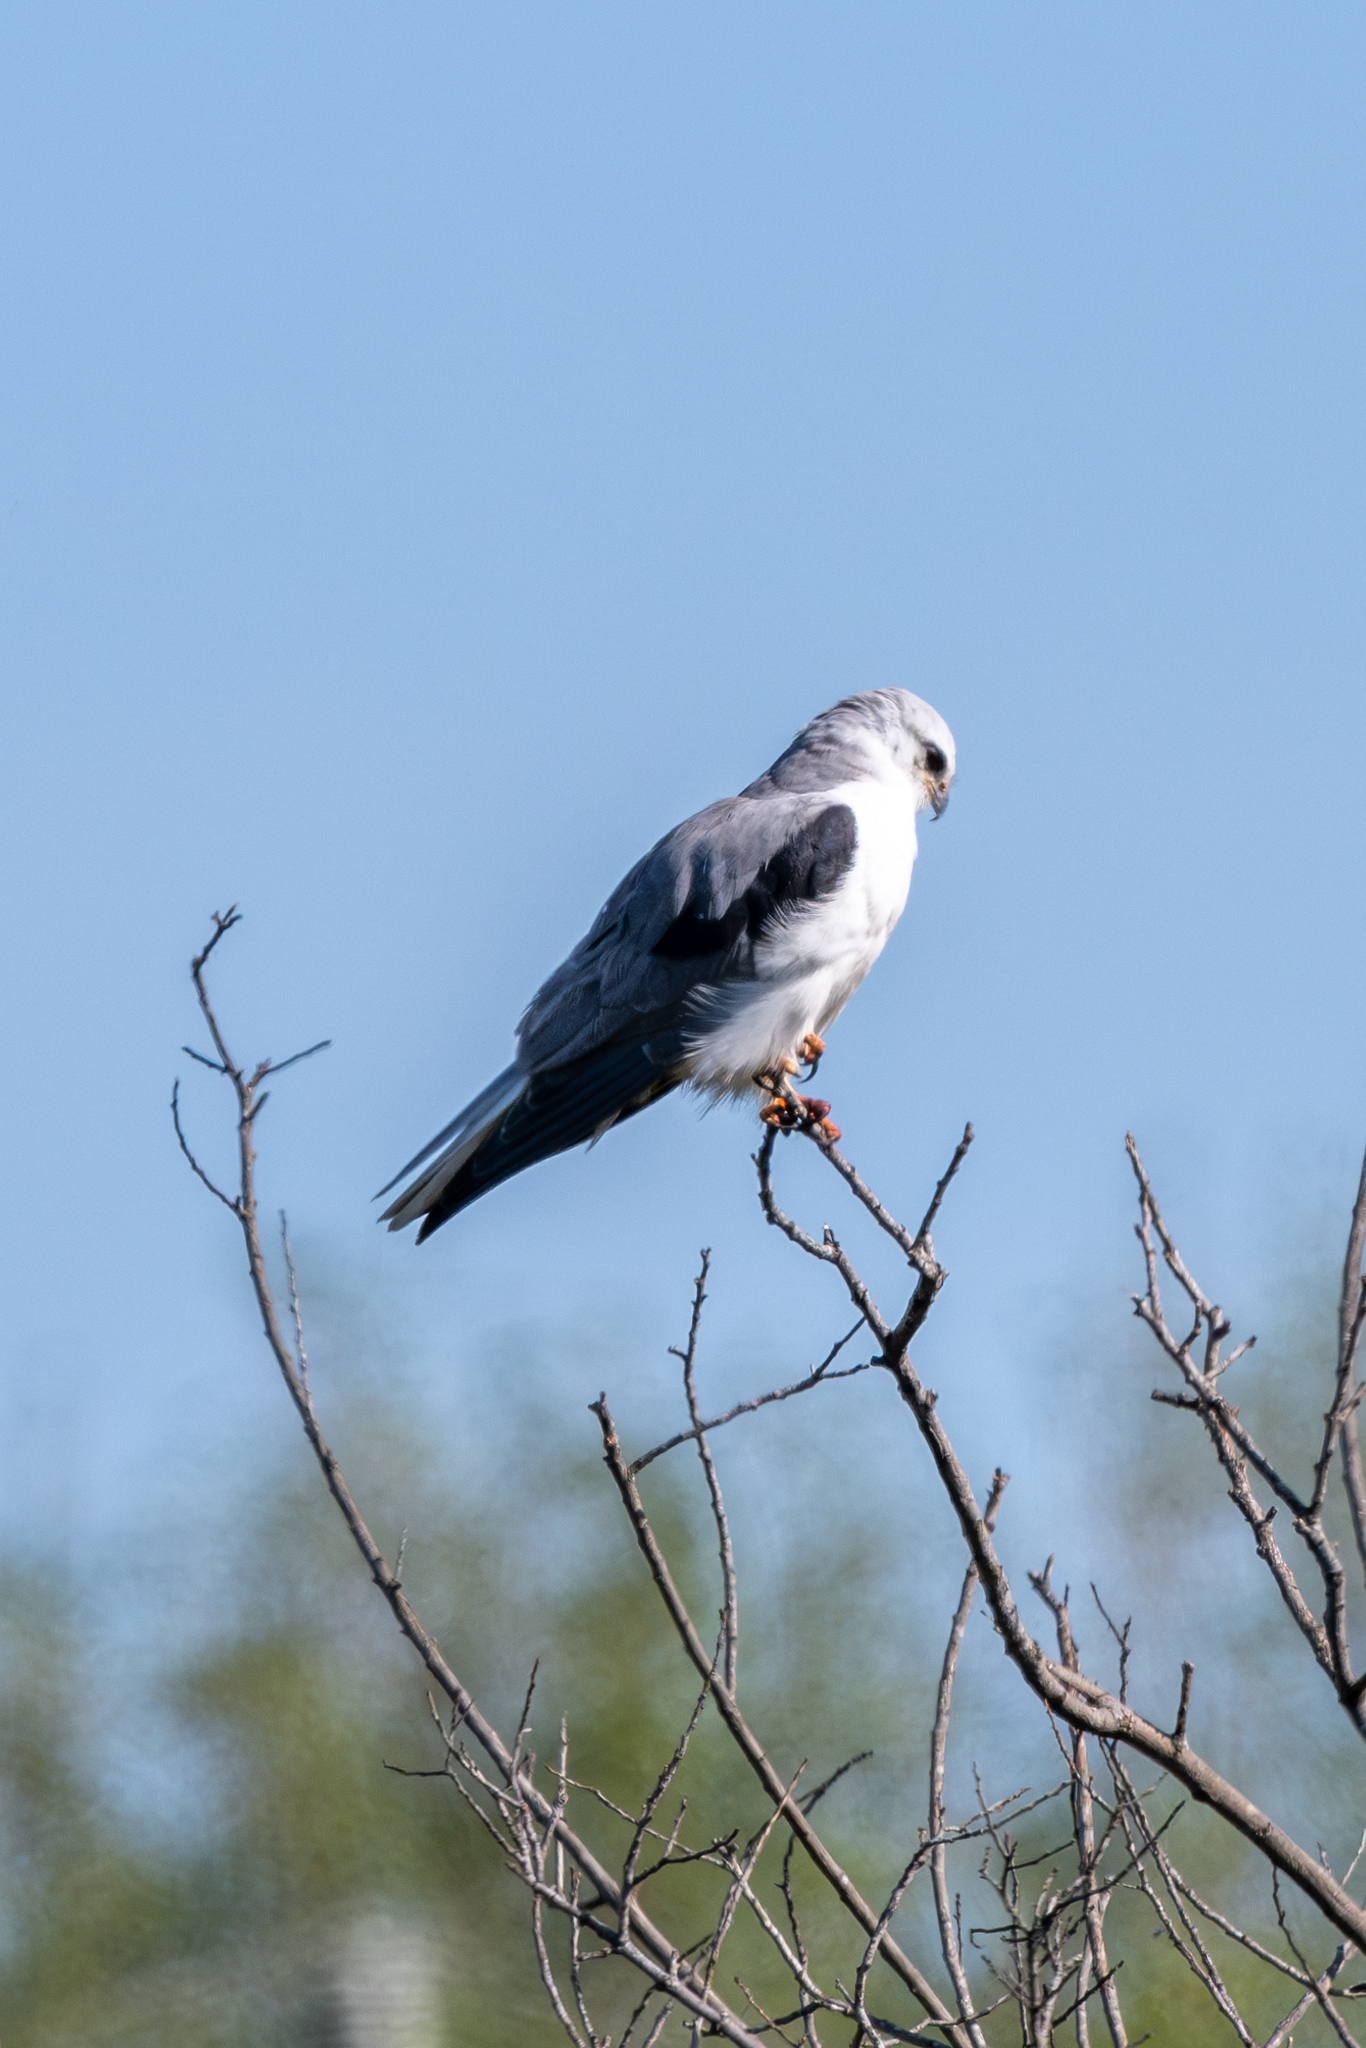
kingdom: Animalia
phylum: Chordata
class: Aves
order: Accipitriformes
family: Accipitridae
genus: Elanus
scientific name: Elanus leucurus
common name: White-tailed kite
